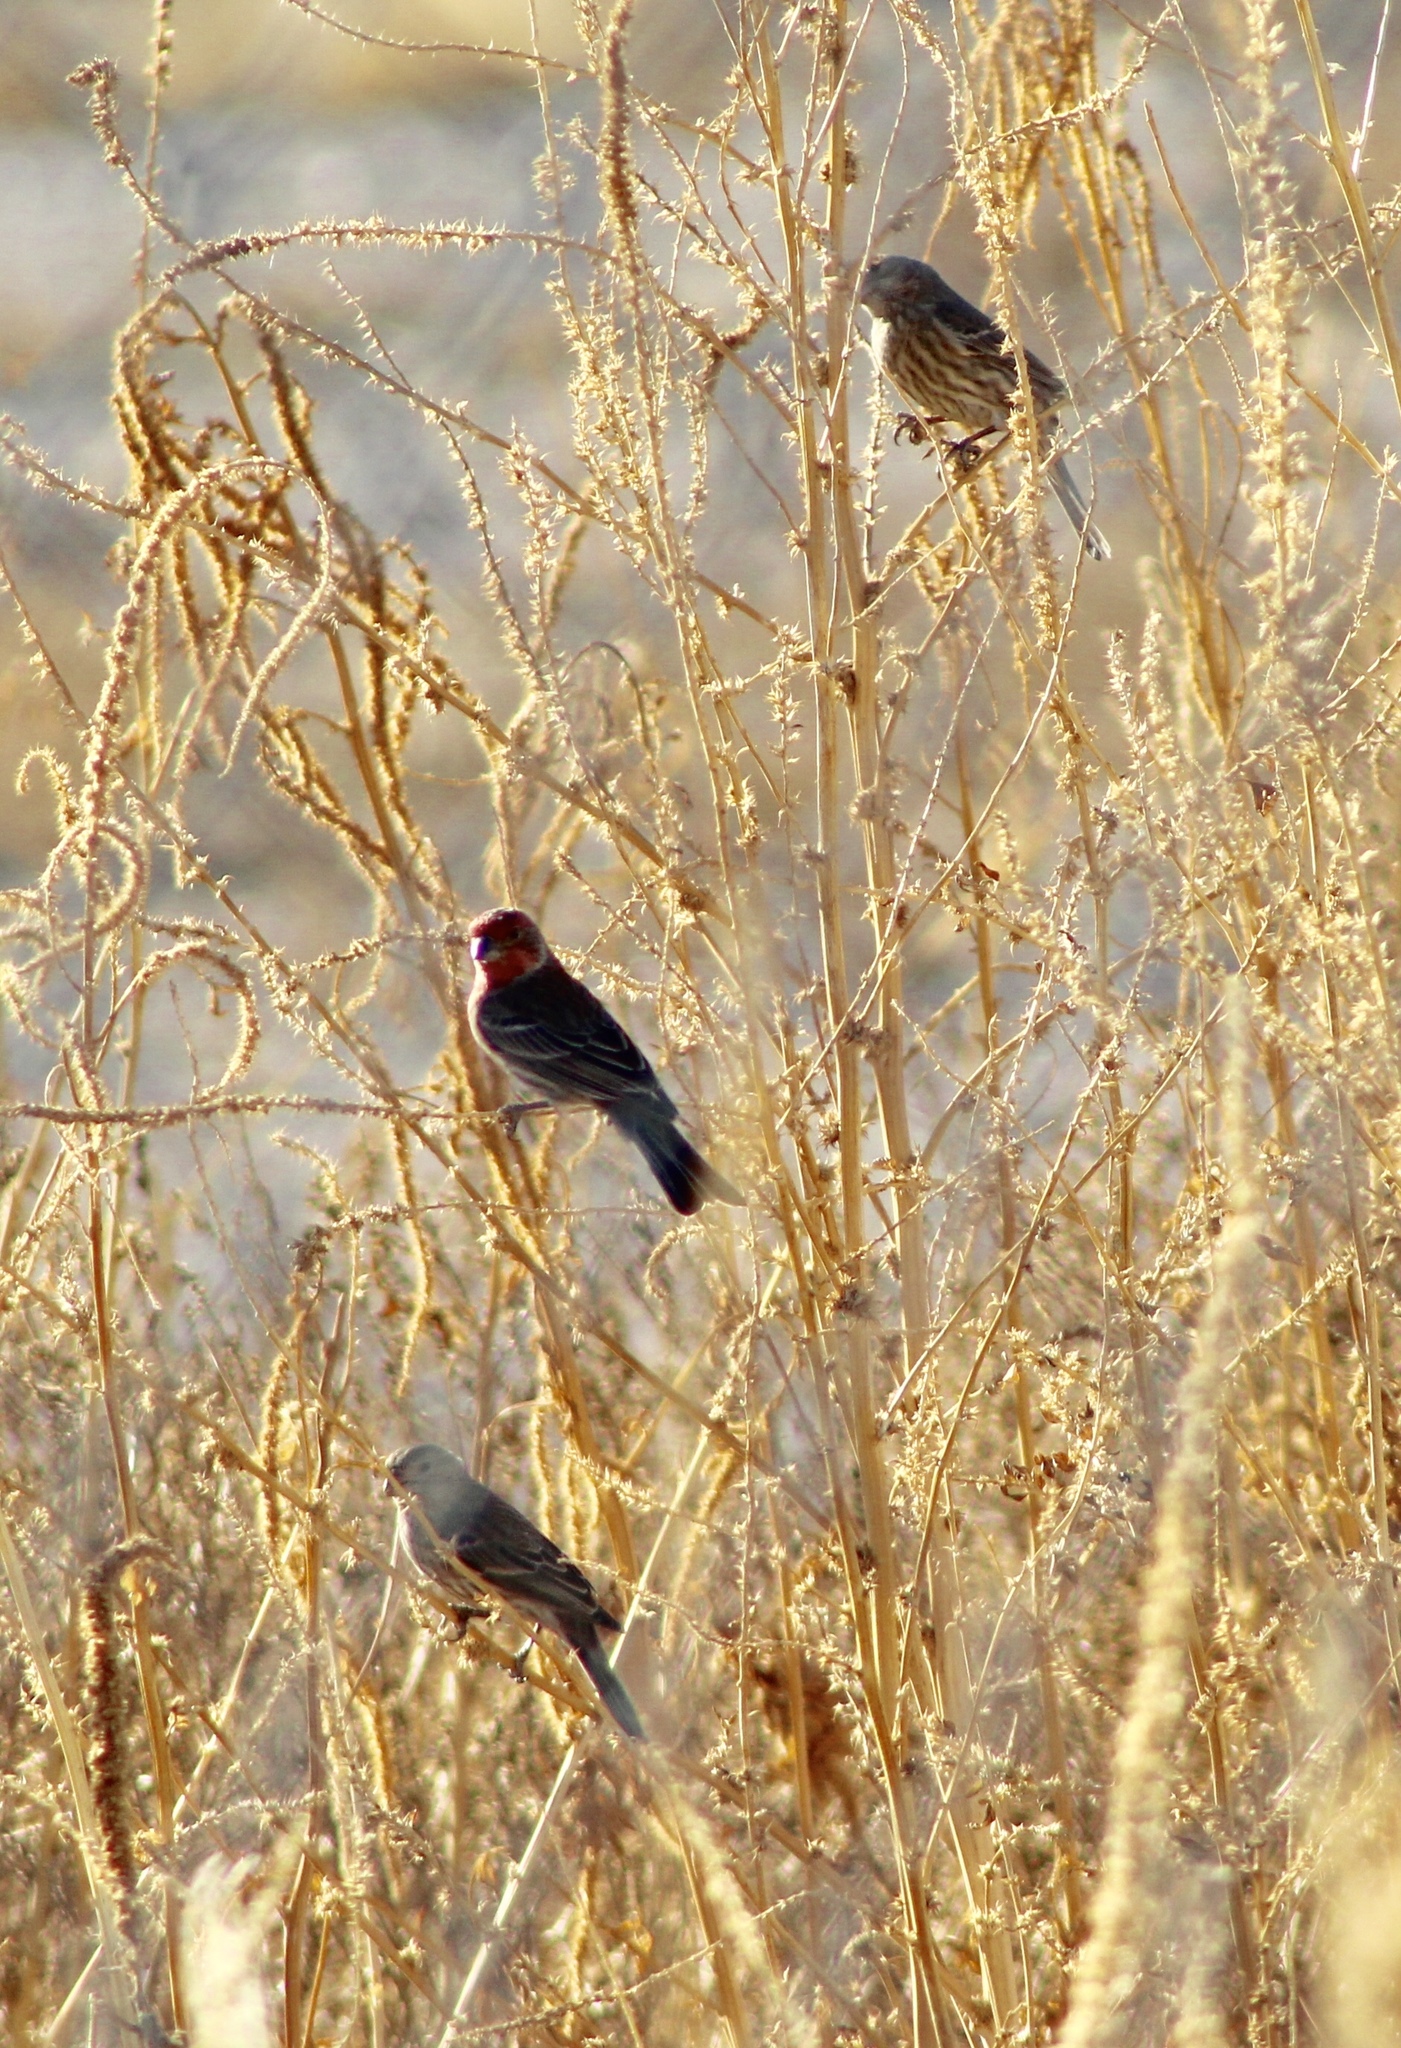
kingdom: Animalia
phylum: Chordata
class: Aves
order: Passeriformes
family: Fringillidae
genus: Haemorhous
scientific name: Haemorhous mexicanus
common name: House finch
